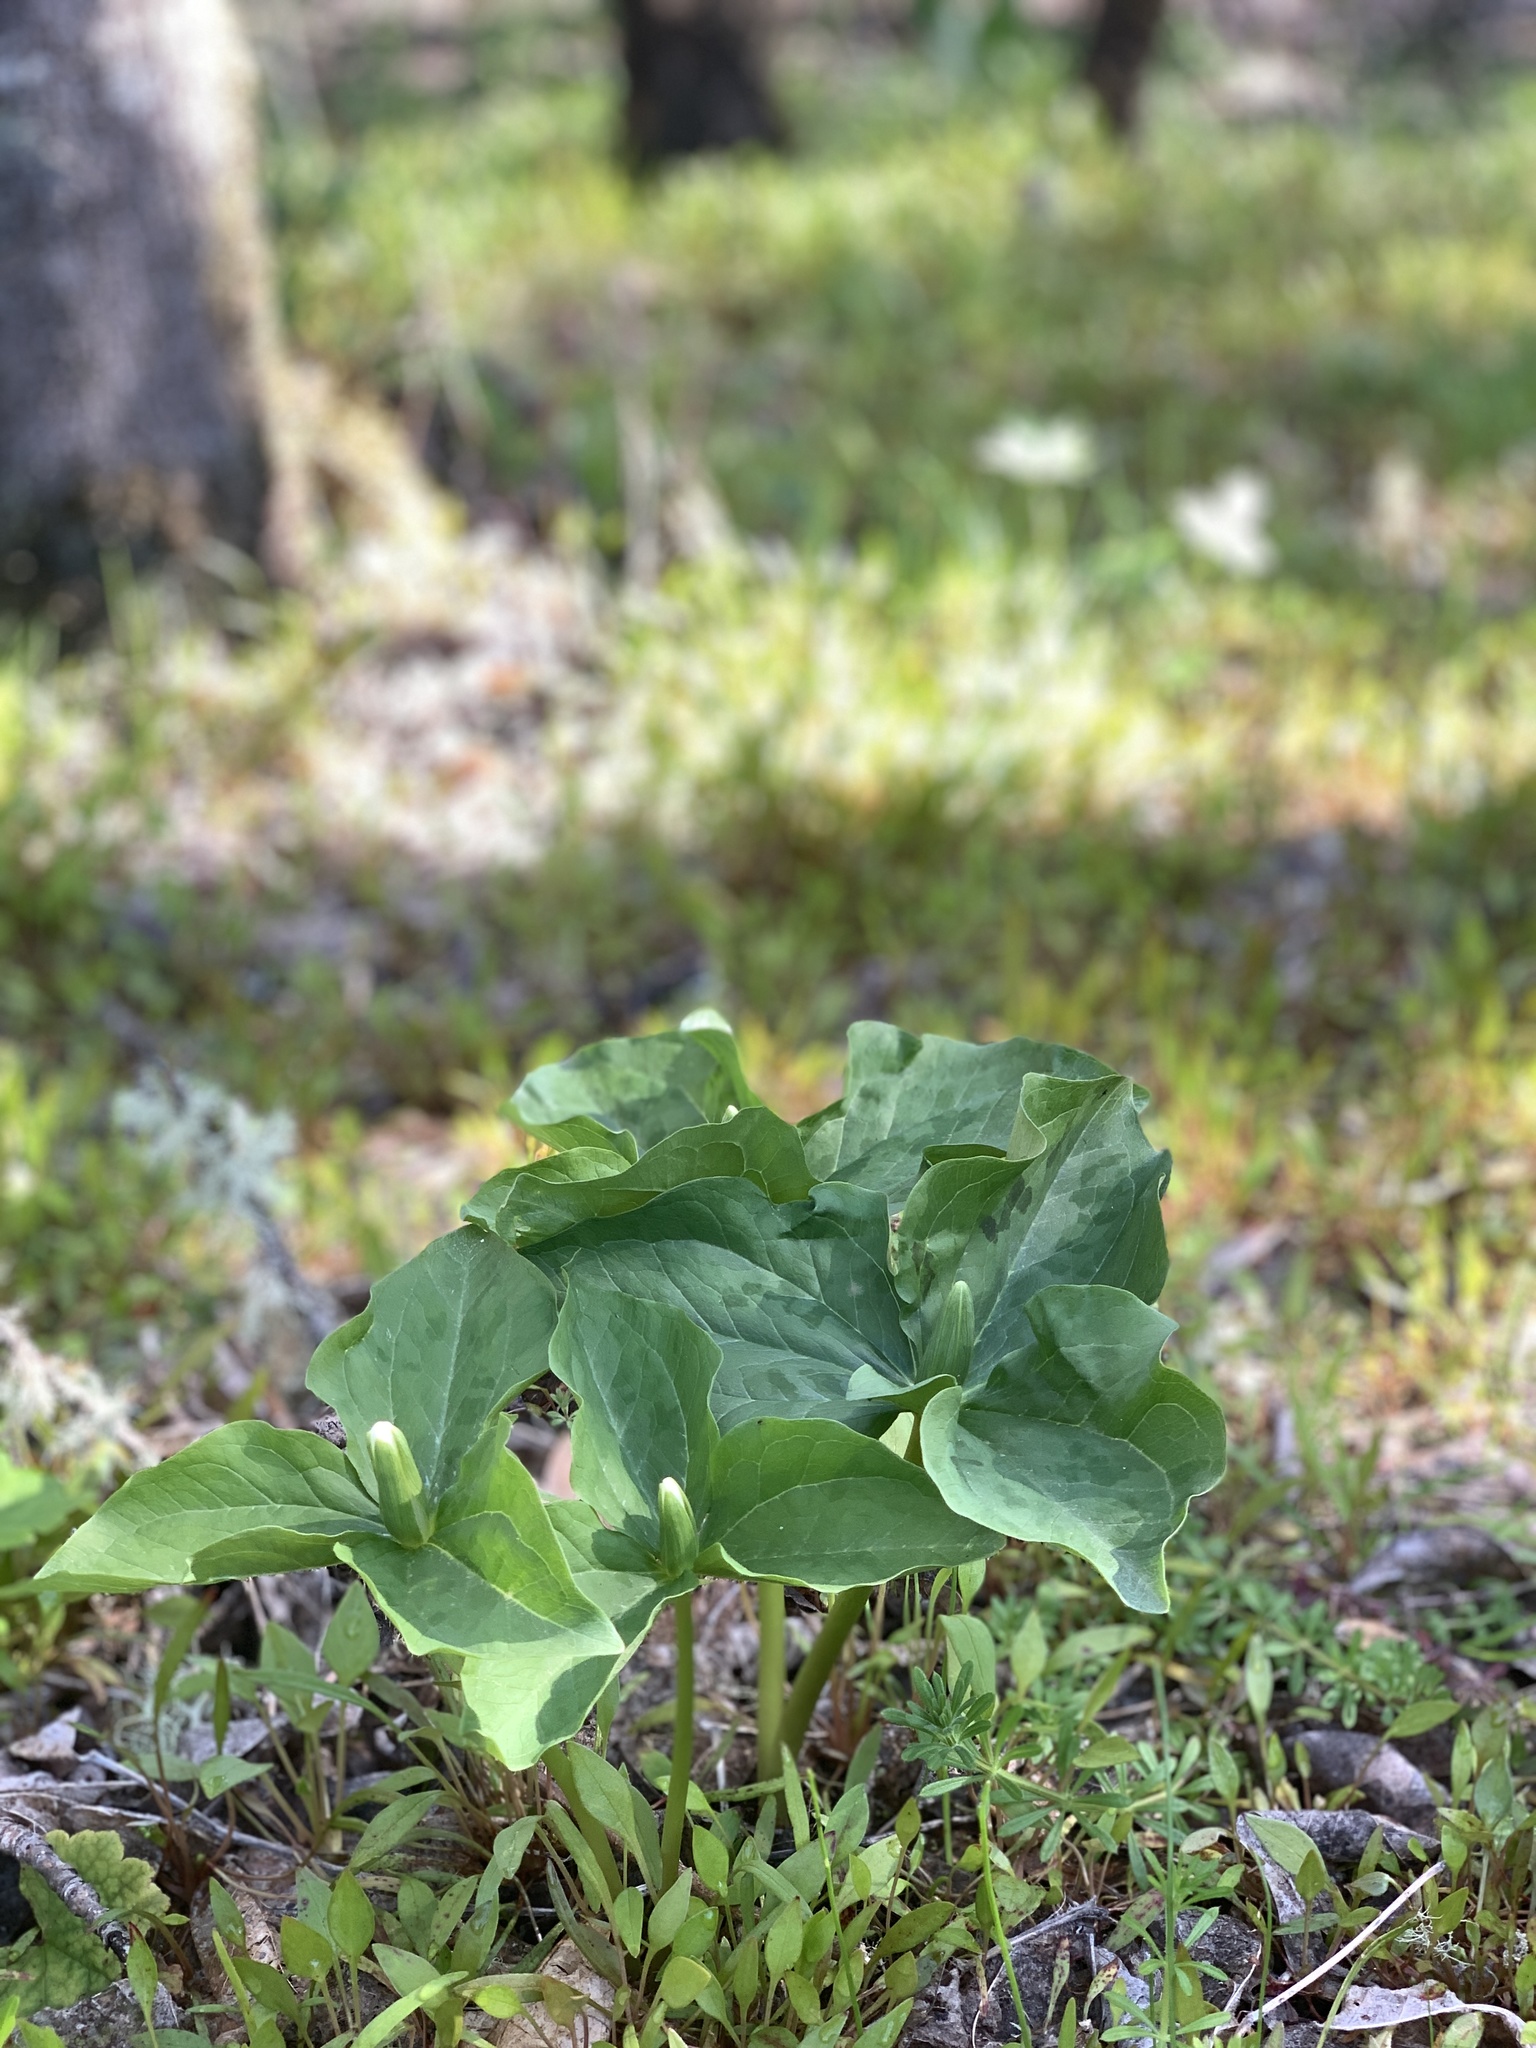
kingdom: Plantae
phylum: Tracheophyta
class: Liliopsida
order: Liliales
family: Melanthiaceae
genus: Trillium
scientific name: Trillium albidum
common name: Freeman's trillium
